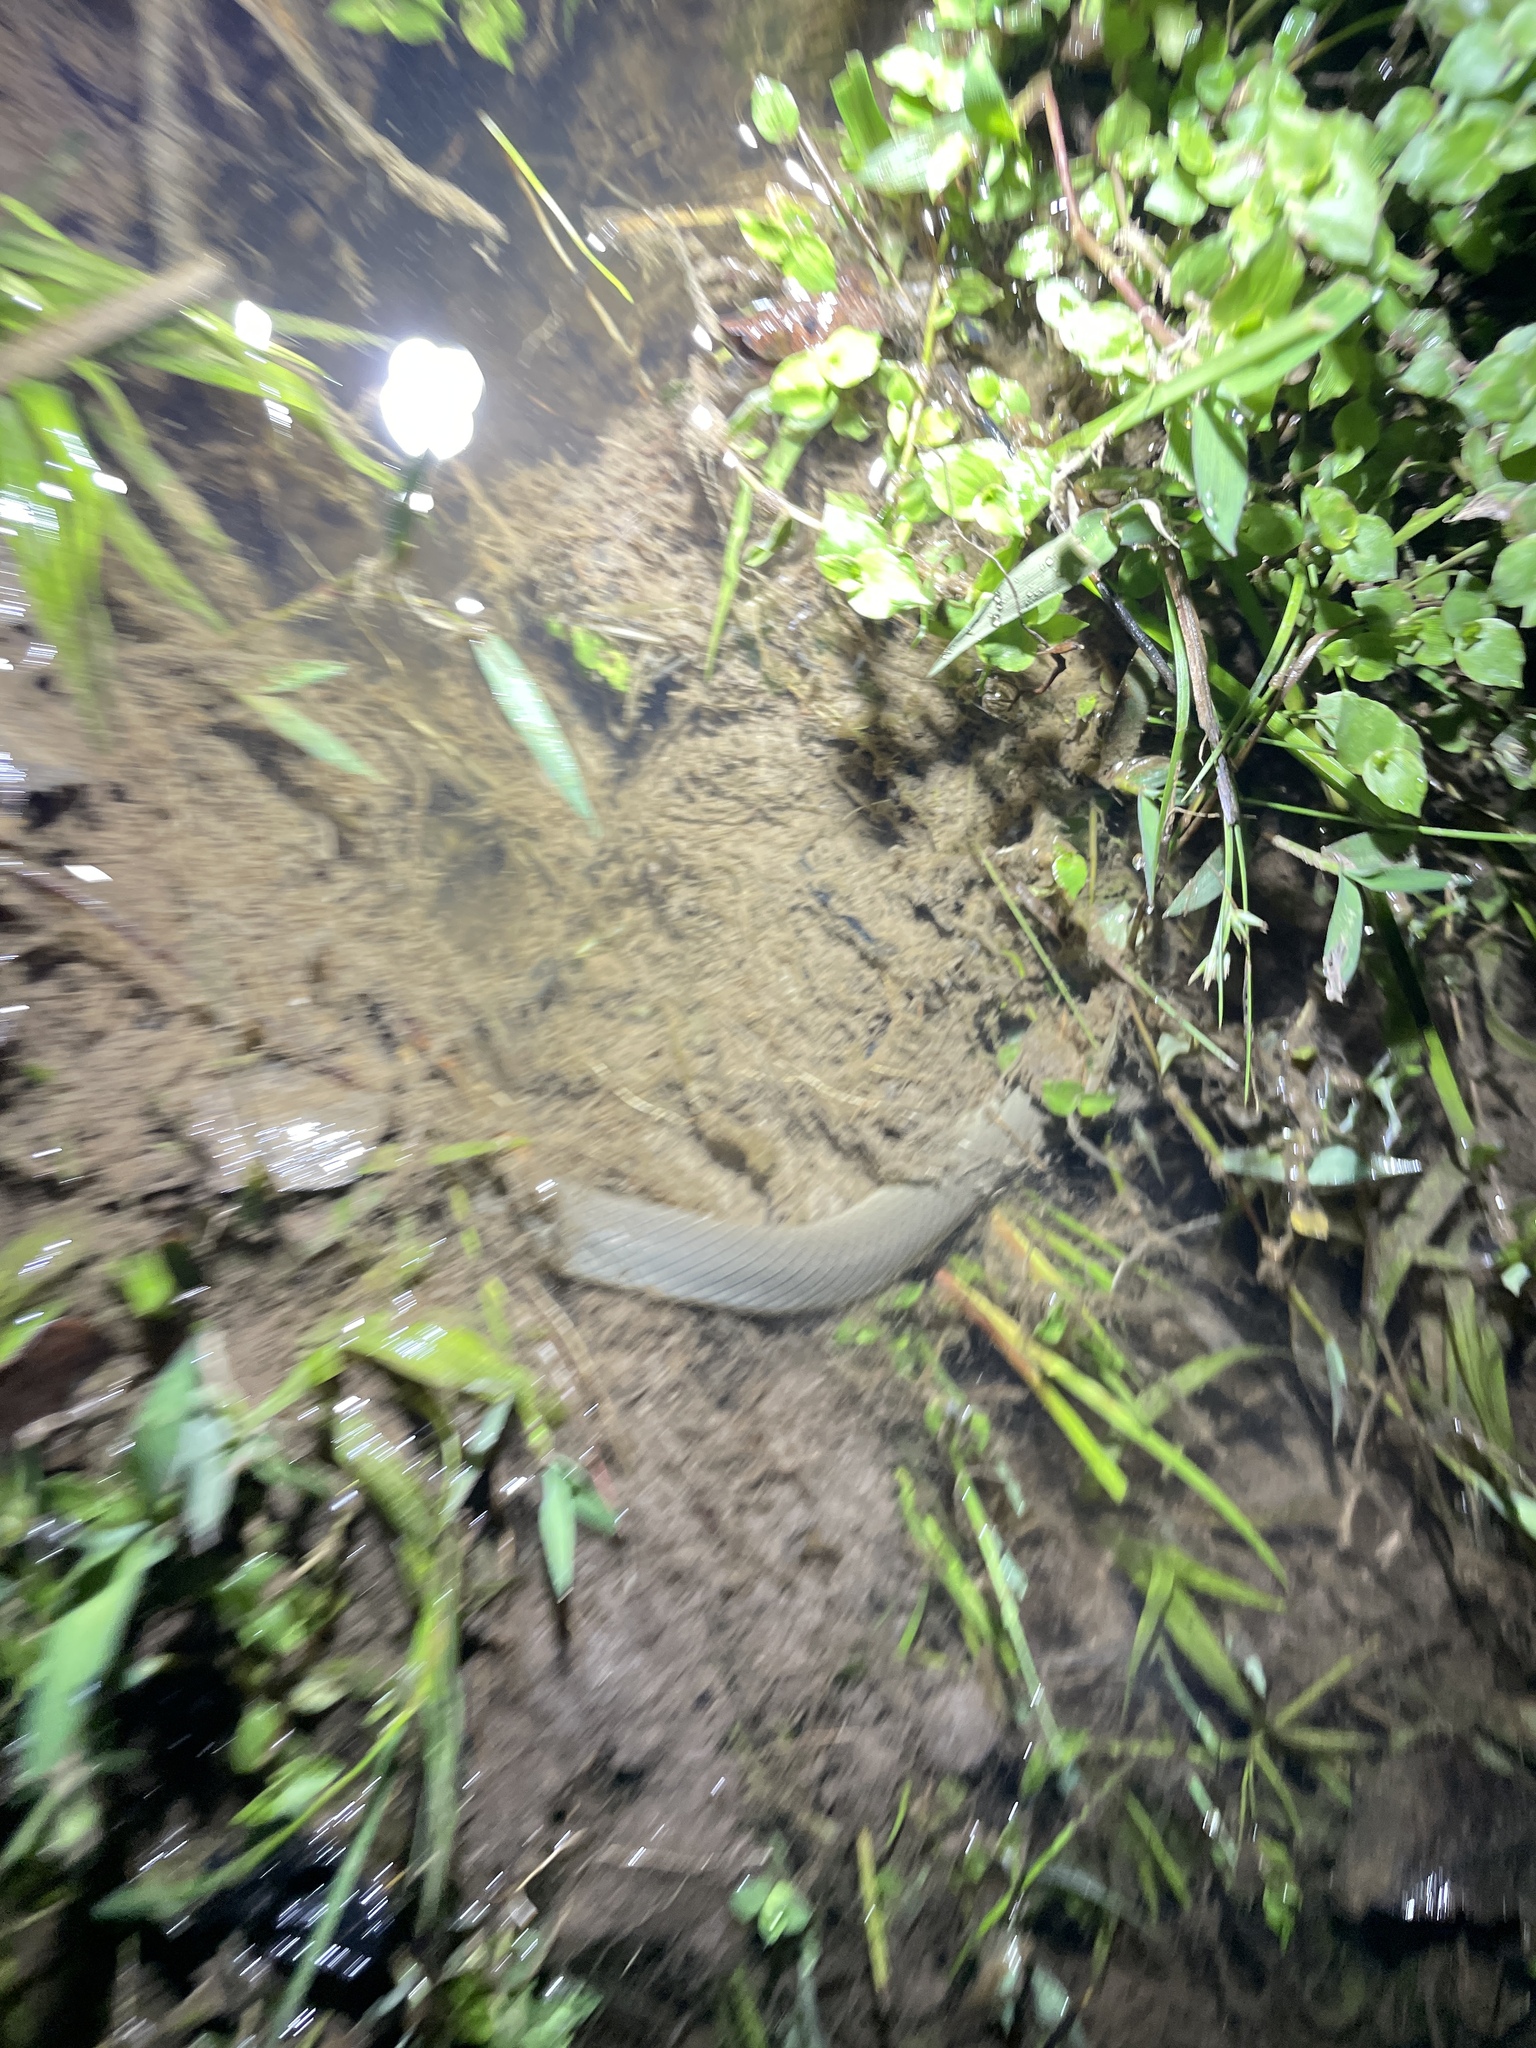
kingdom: Animalia
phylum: Chordata
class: Squamata
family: Homalopsidae
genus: Hypsiscopus
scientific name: Hypsiscopus
